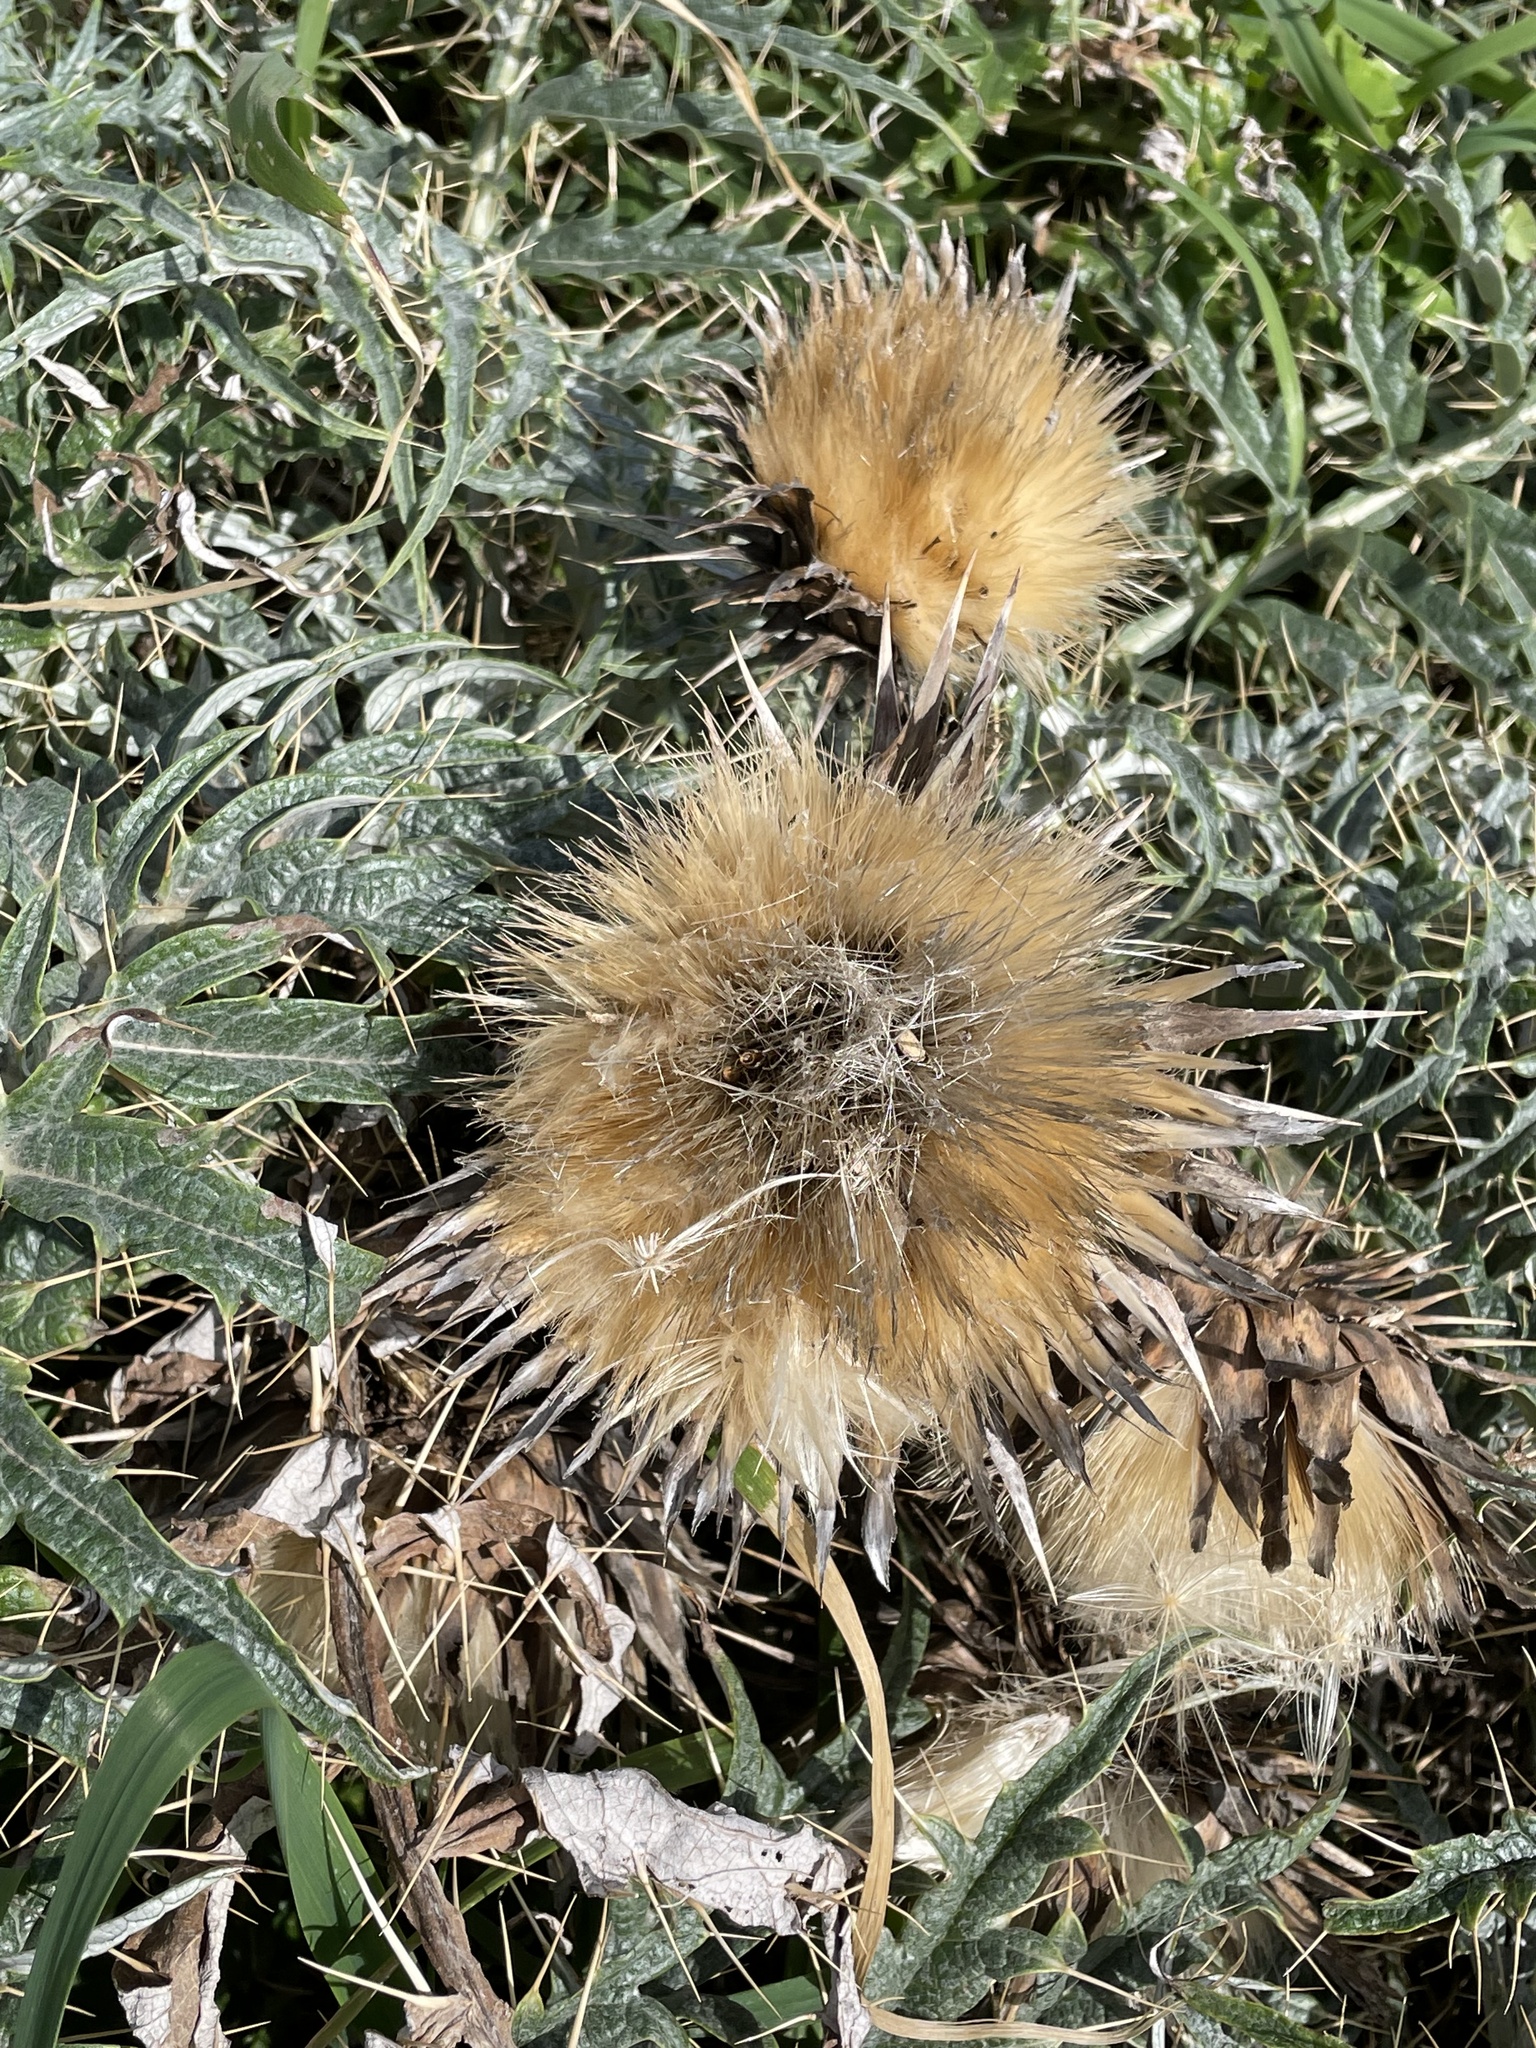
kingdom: Plantae
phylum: Tracheophyta
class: Magnoliopsida
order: Asterales
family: Asteraceae
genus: Cynara
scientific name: Cynara cardunculus
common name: Globe artichoke
